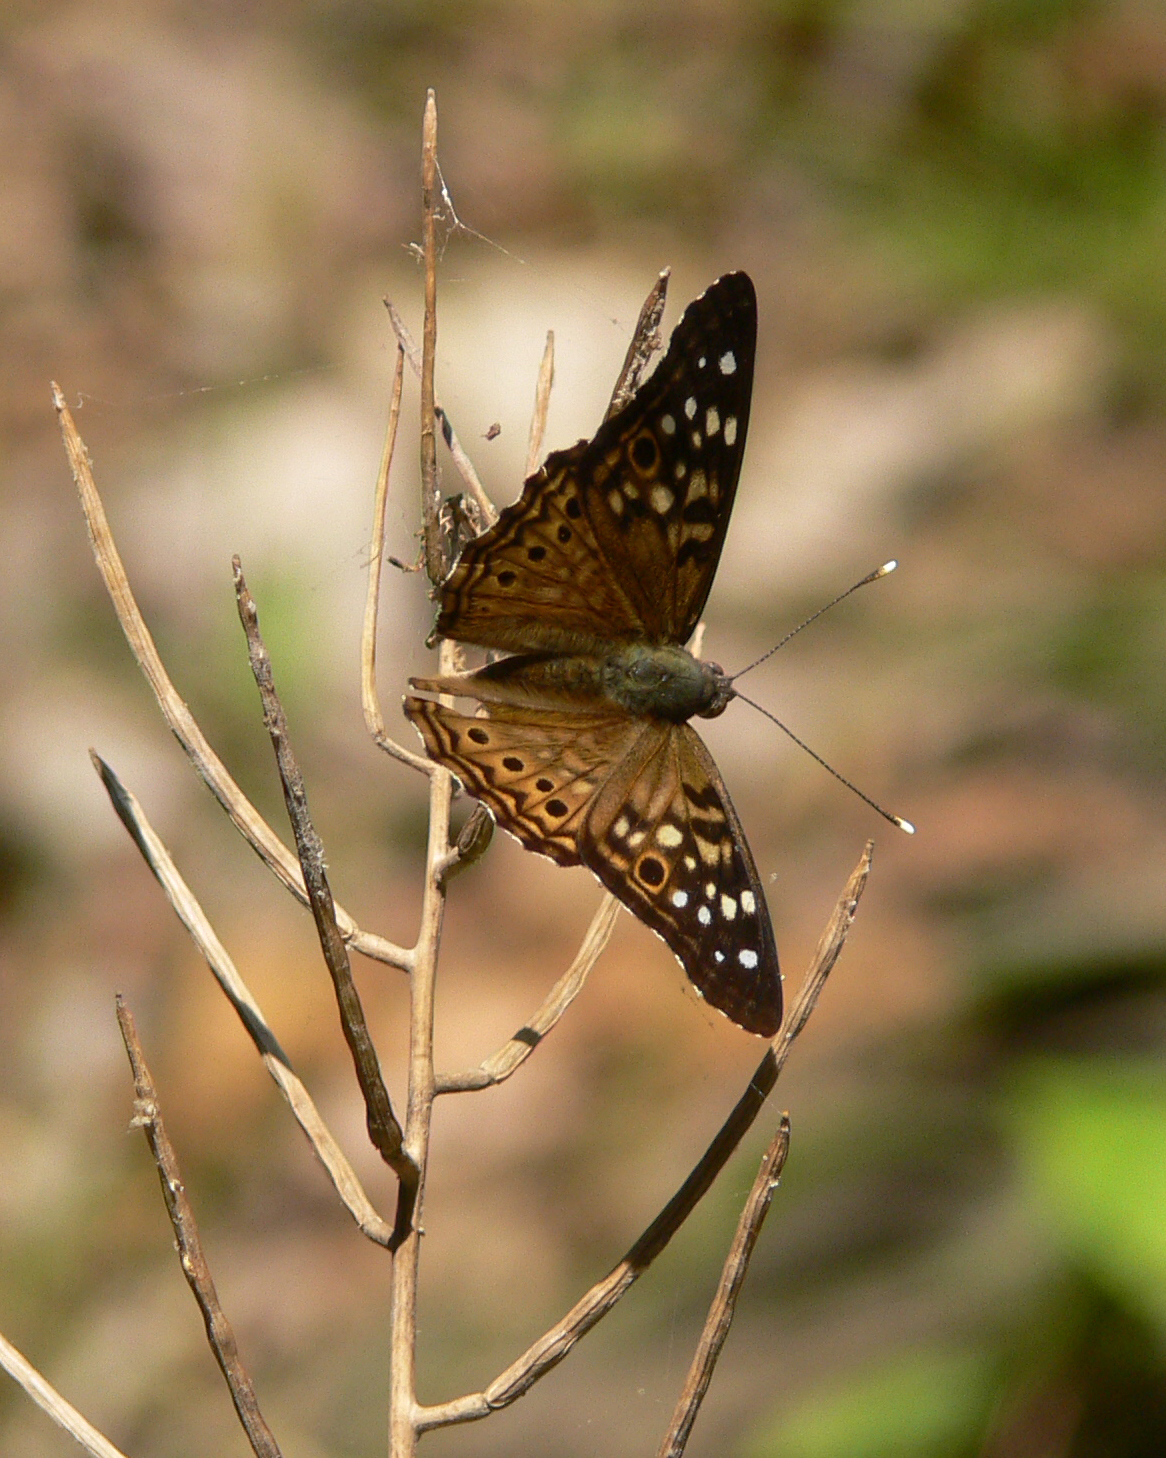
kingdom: Animalia
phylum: Arthropoda
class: Insecta
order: Lepidoptera
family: Nymphalidae
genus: Asterocampa
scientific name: Asterocampa celtis
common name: Hackberry emperor
